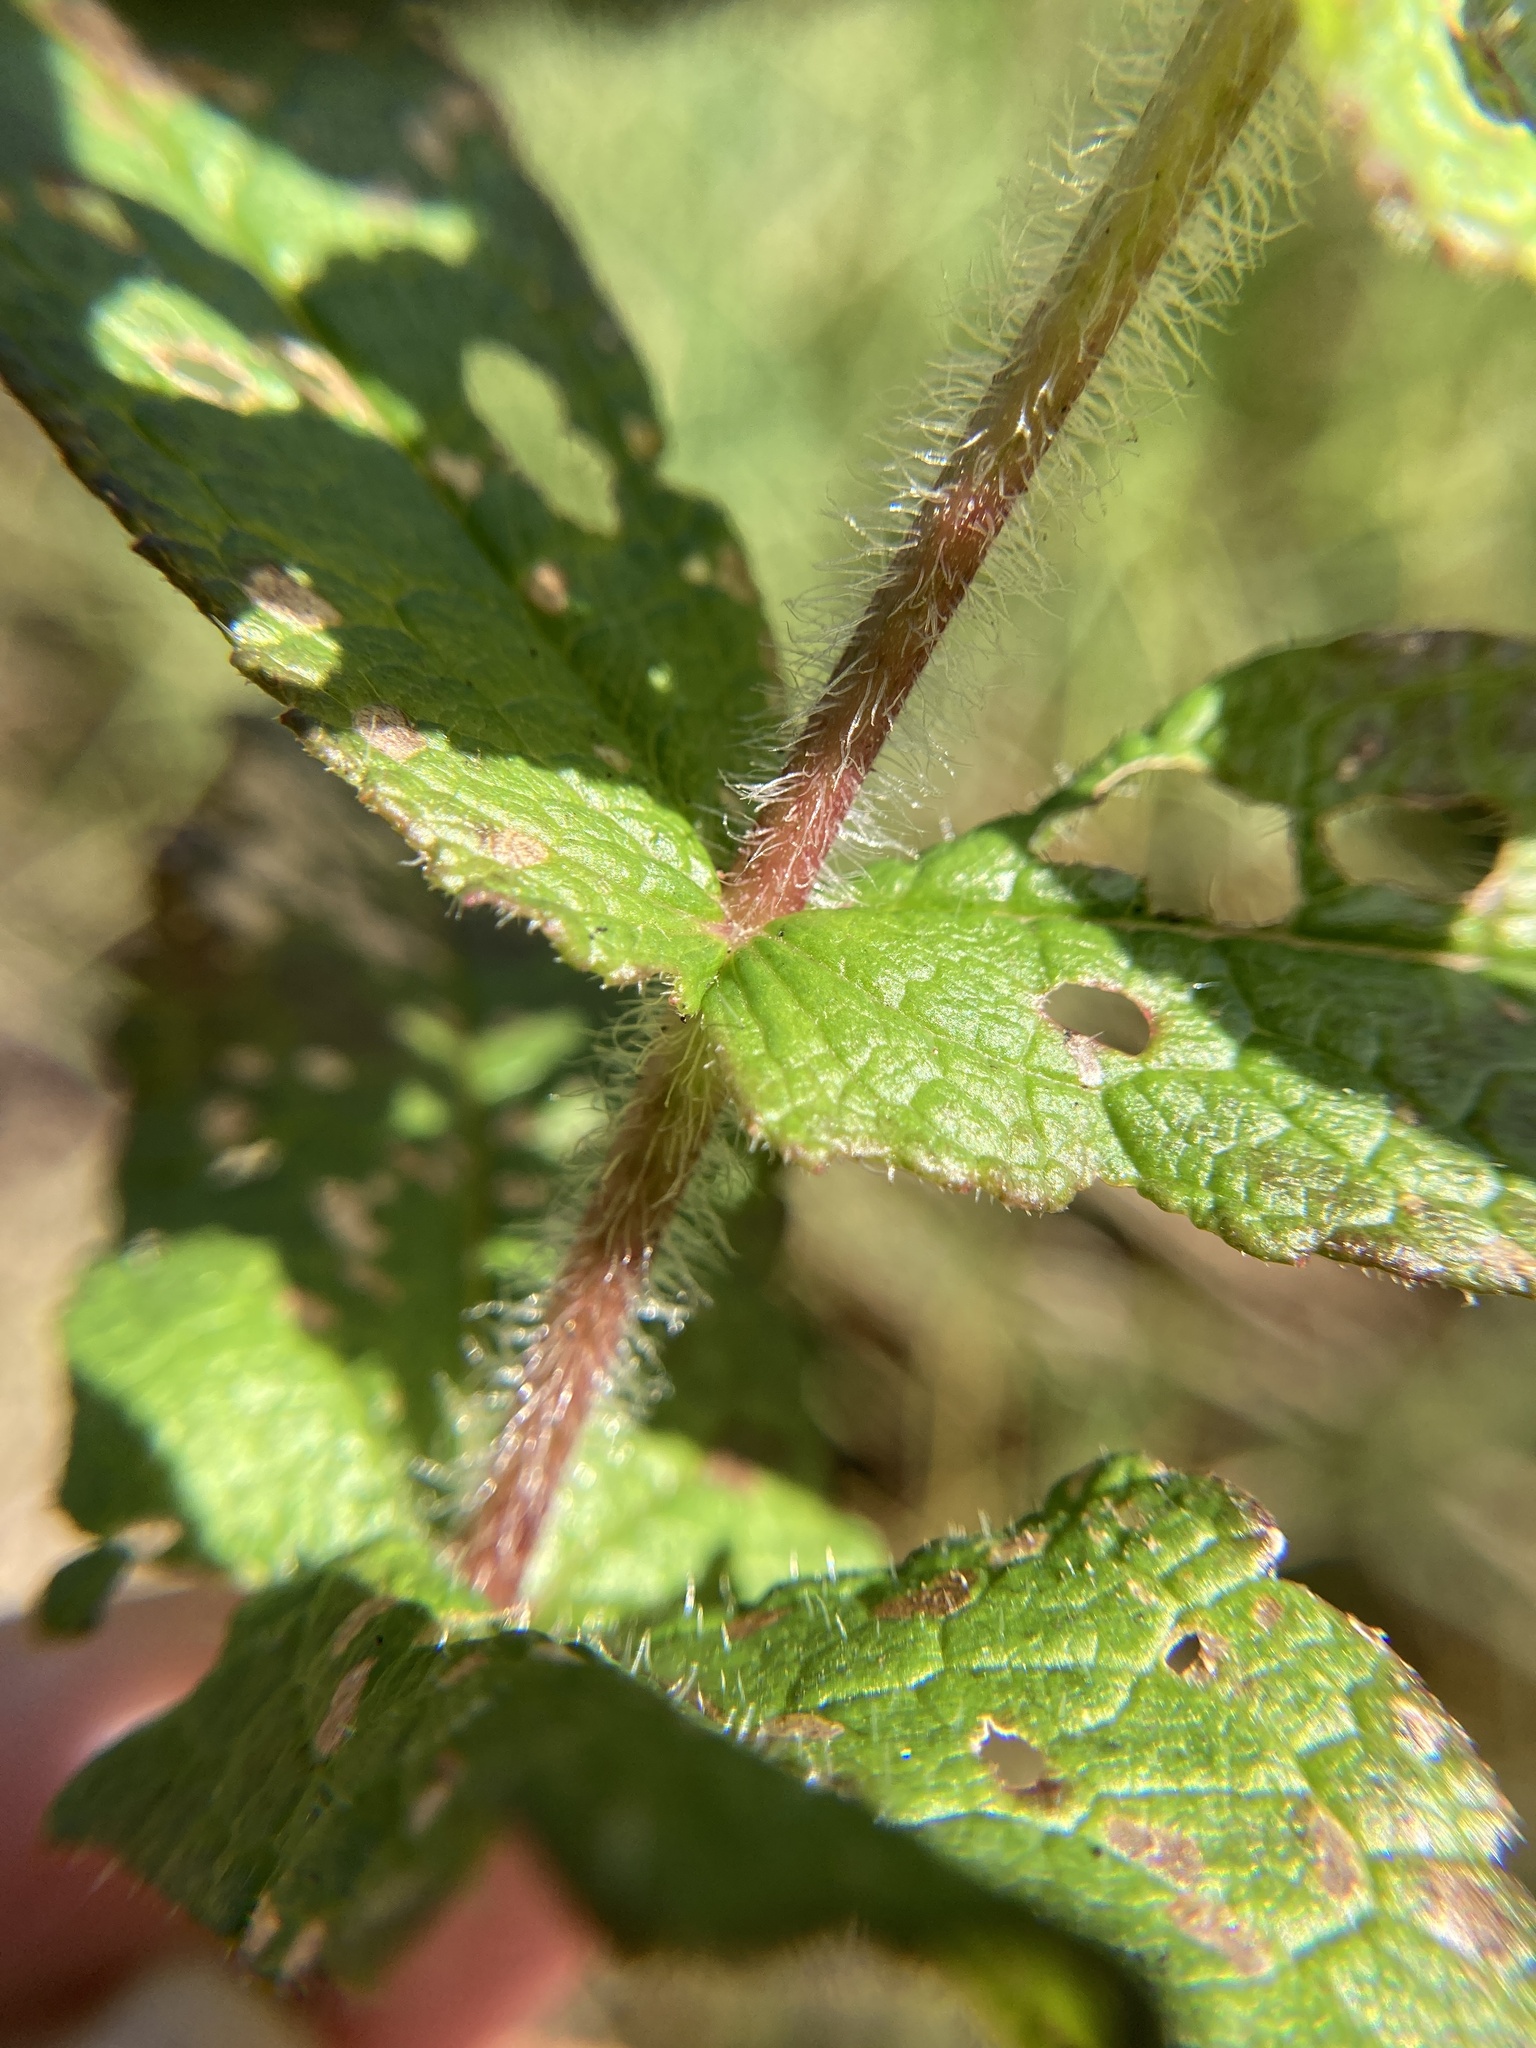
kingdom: Plantae
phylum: Tracheophyta
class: Magnoliopsida
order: Asterales
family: Asteraceae
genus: Eupatorium
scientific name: Eupatorium perfoliatum
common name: Boneset
